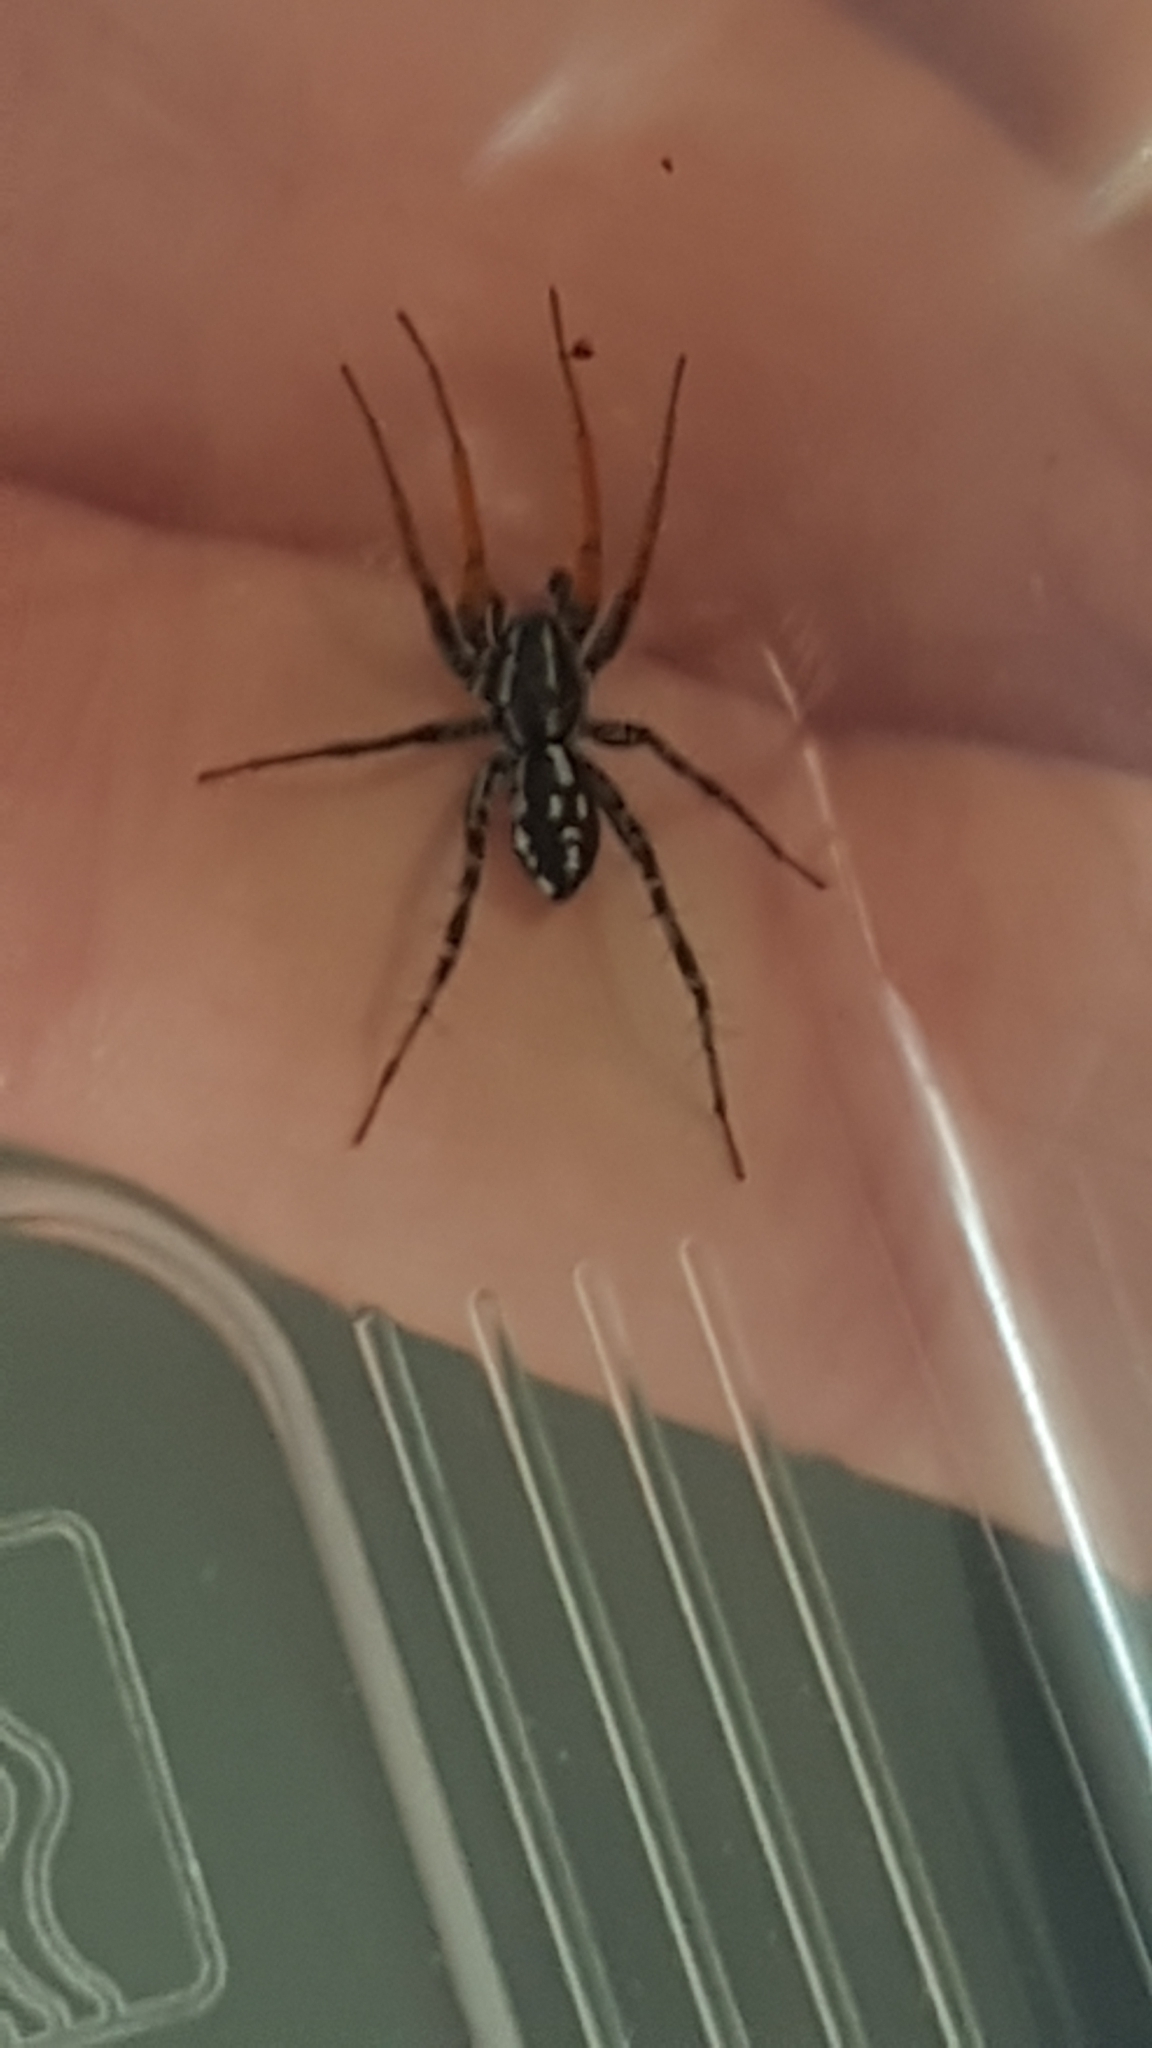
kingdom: Animalia
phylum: Arthropoda
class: Arachnida
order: Araneae
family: Corinnidae
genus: Nyssus
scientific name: Nyssus coloripes
